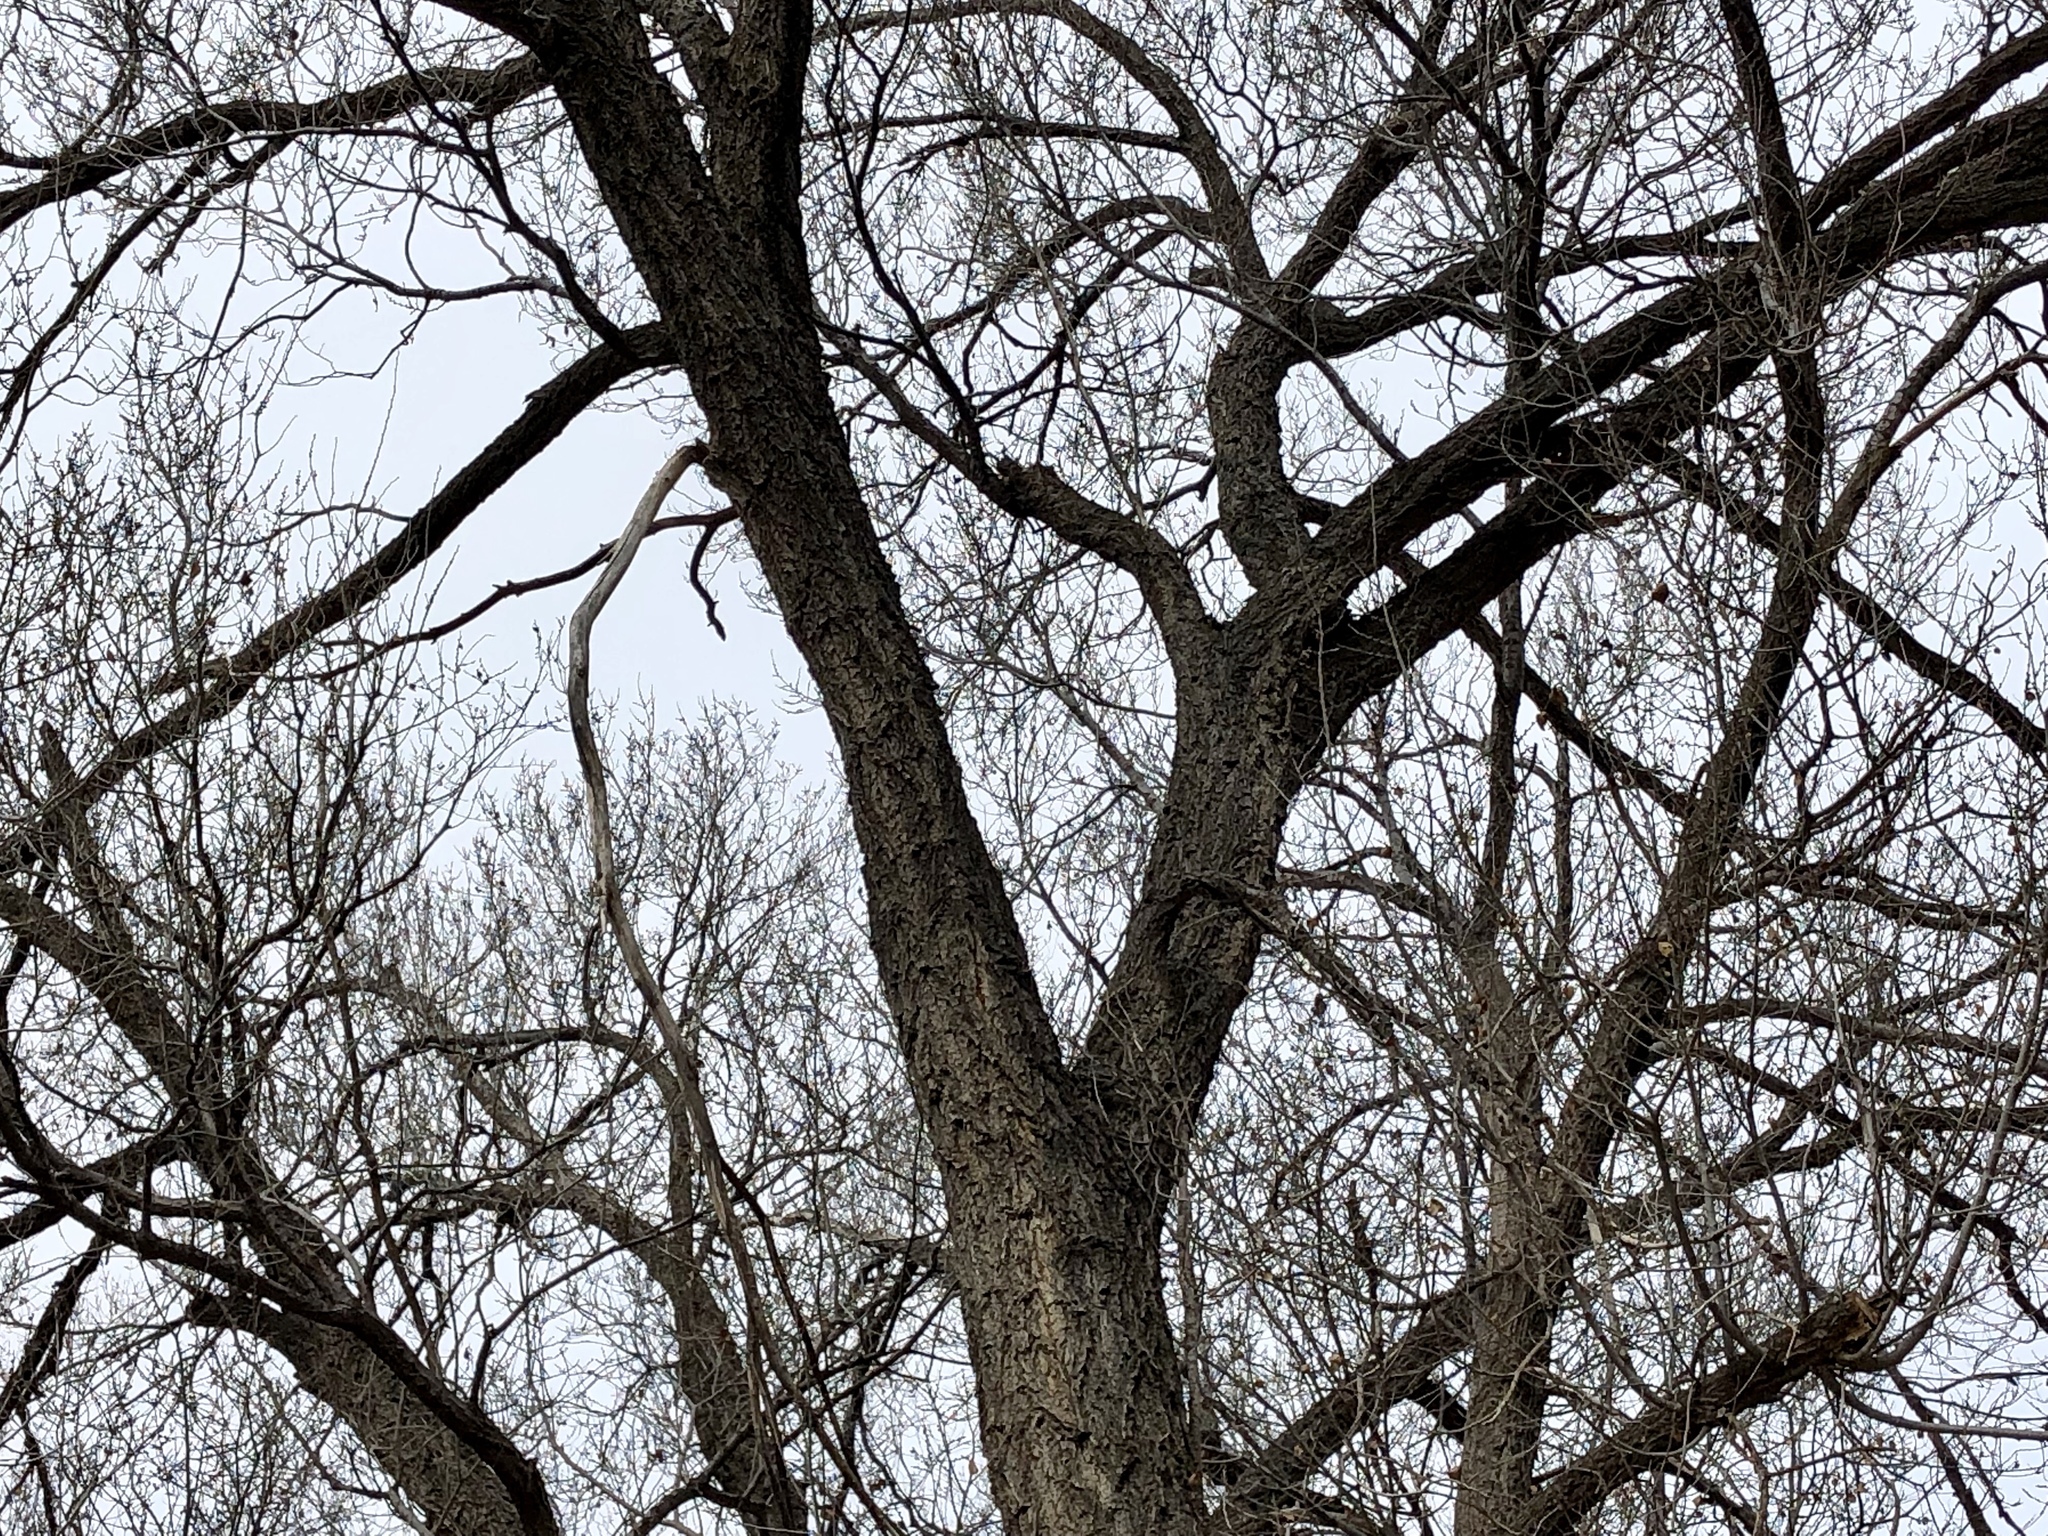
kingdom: Plantae
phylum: Tracheophyta
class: Magnoliopsida
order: Rosales
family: Ulmaceae
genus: Ulmus
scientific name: Ulmus pumila
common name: Siberian elm
